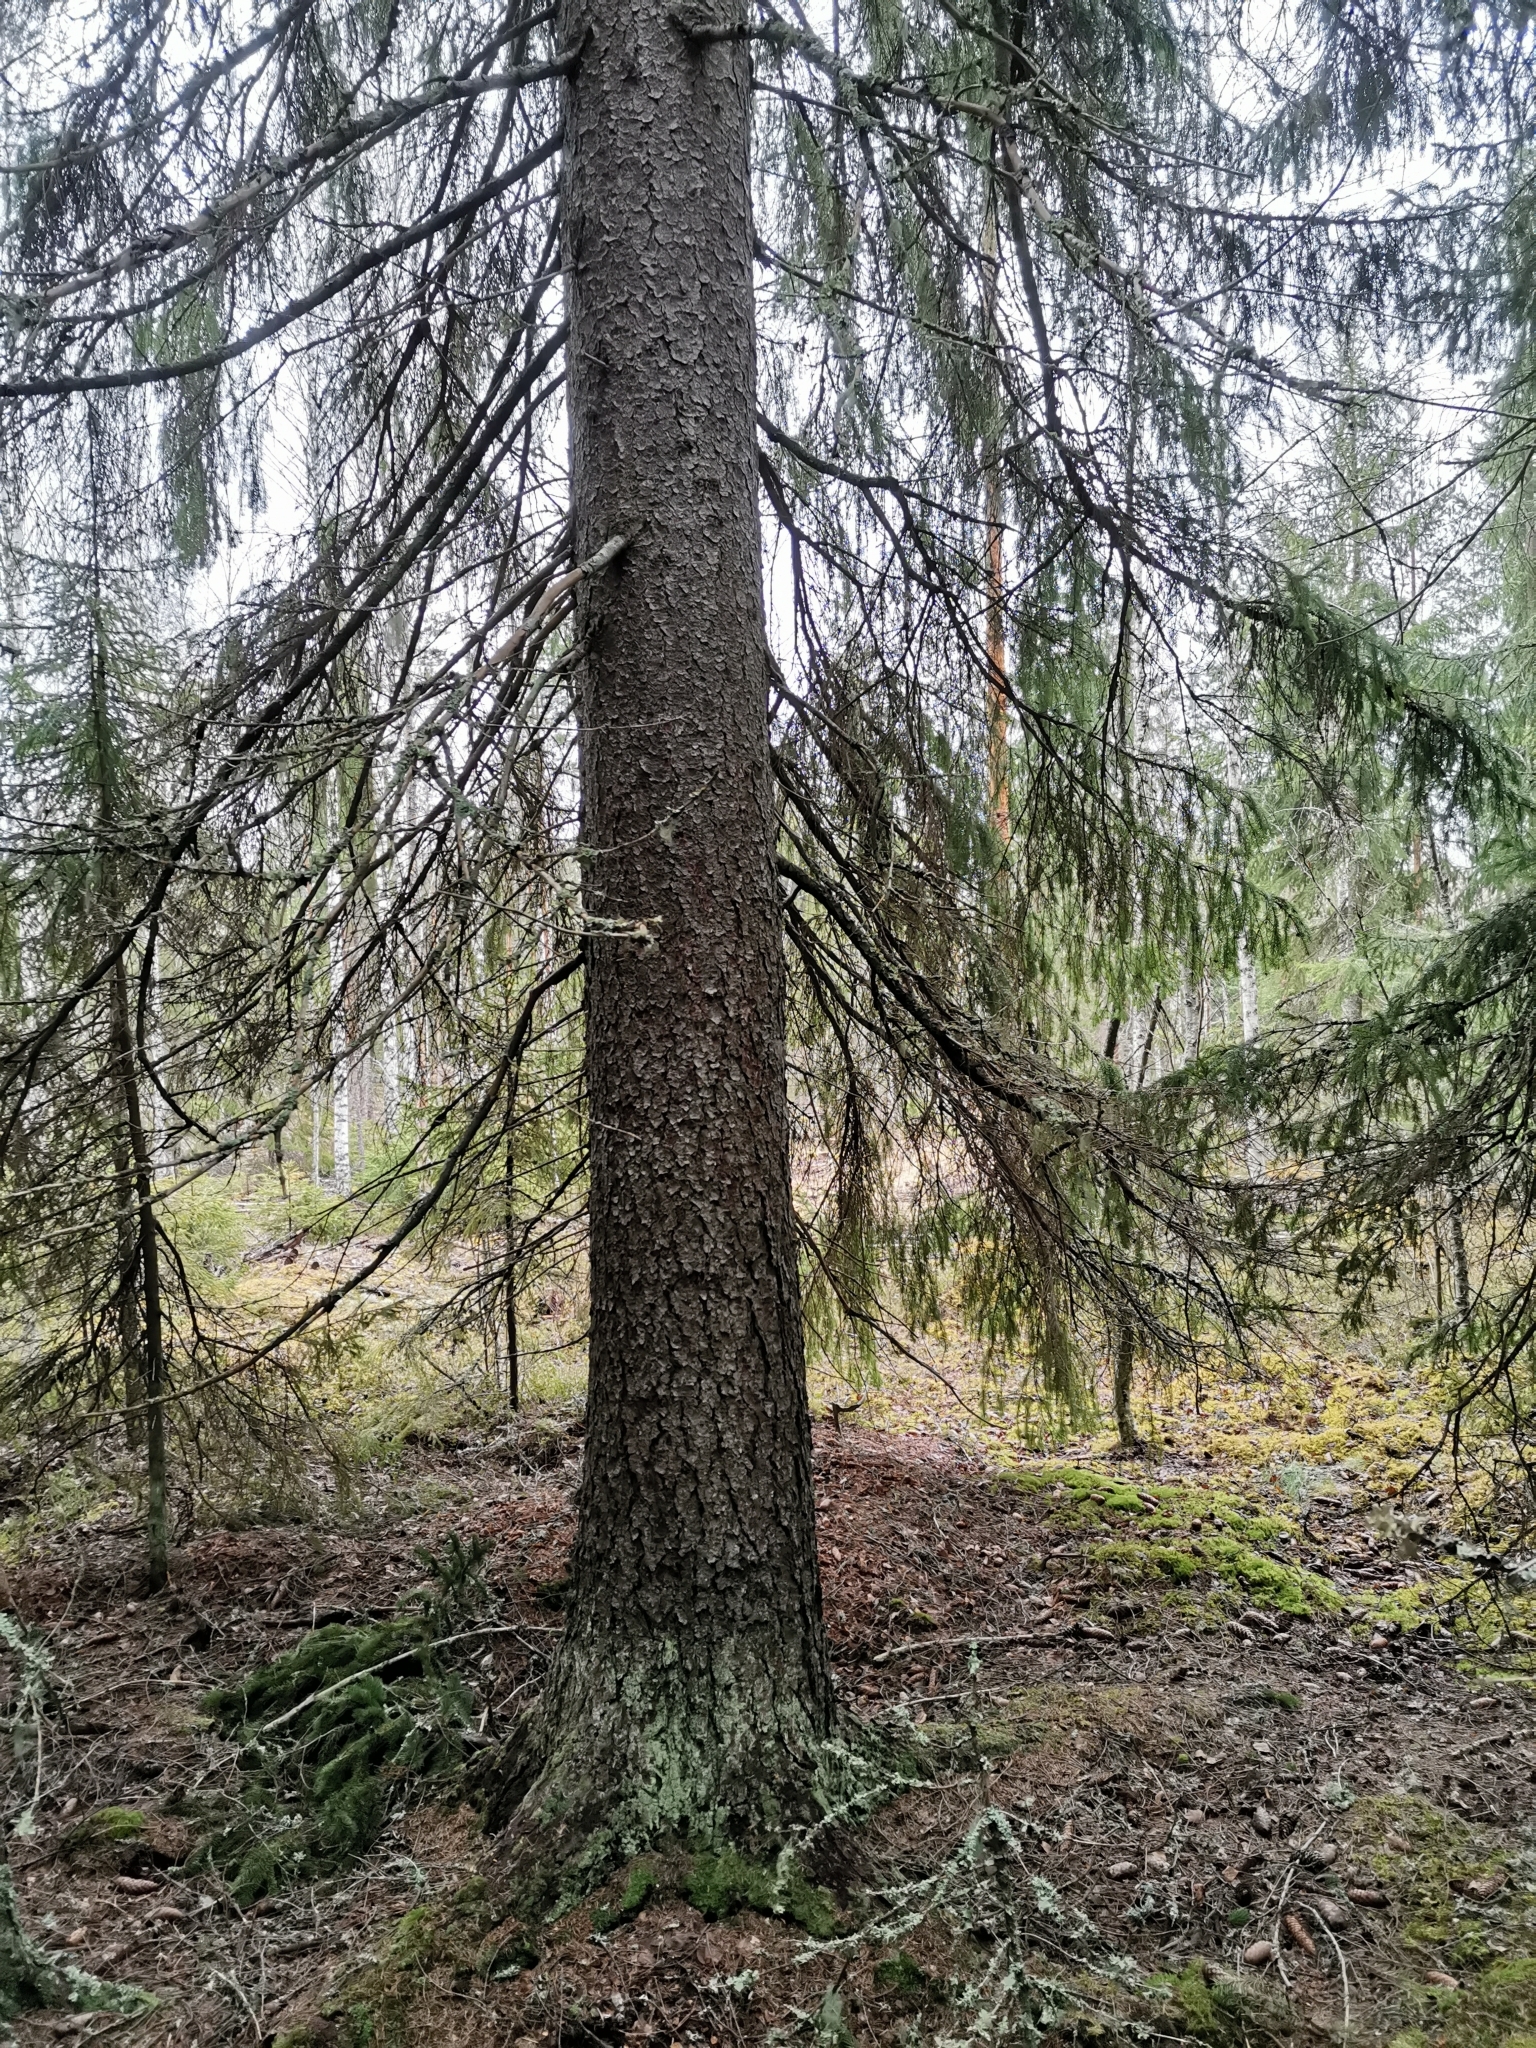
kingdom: Animalia
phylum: Chordata
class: Mammalia
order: Rodentia
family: Sciuridae
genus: Pteromys
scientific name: Pteromys volans
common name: Siberian flying squirrel
